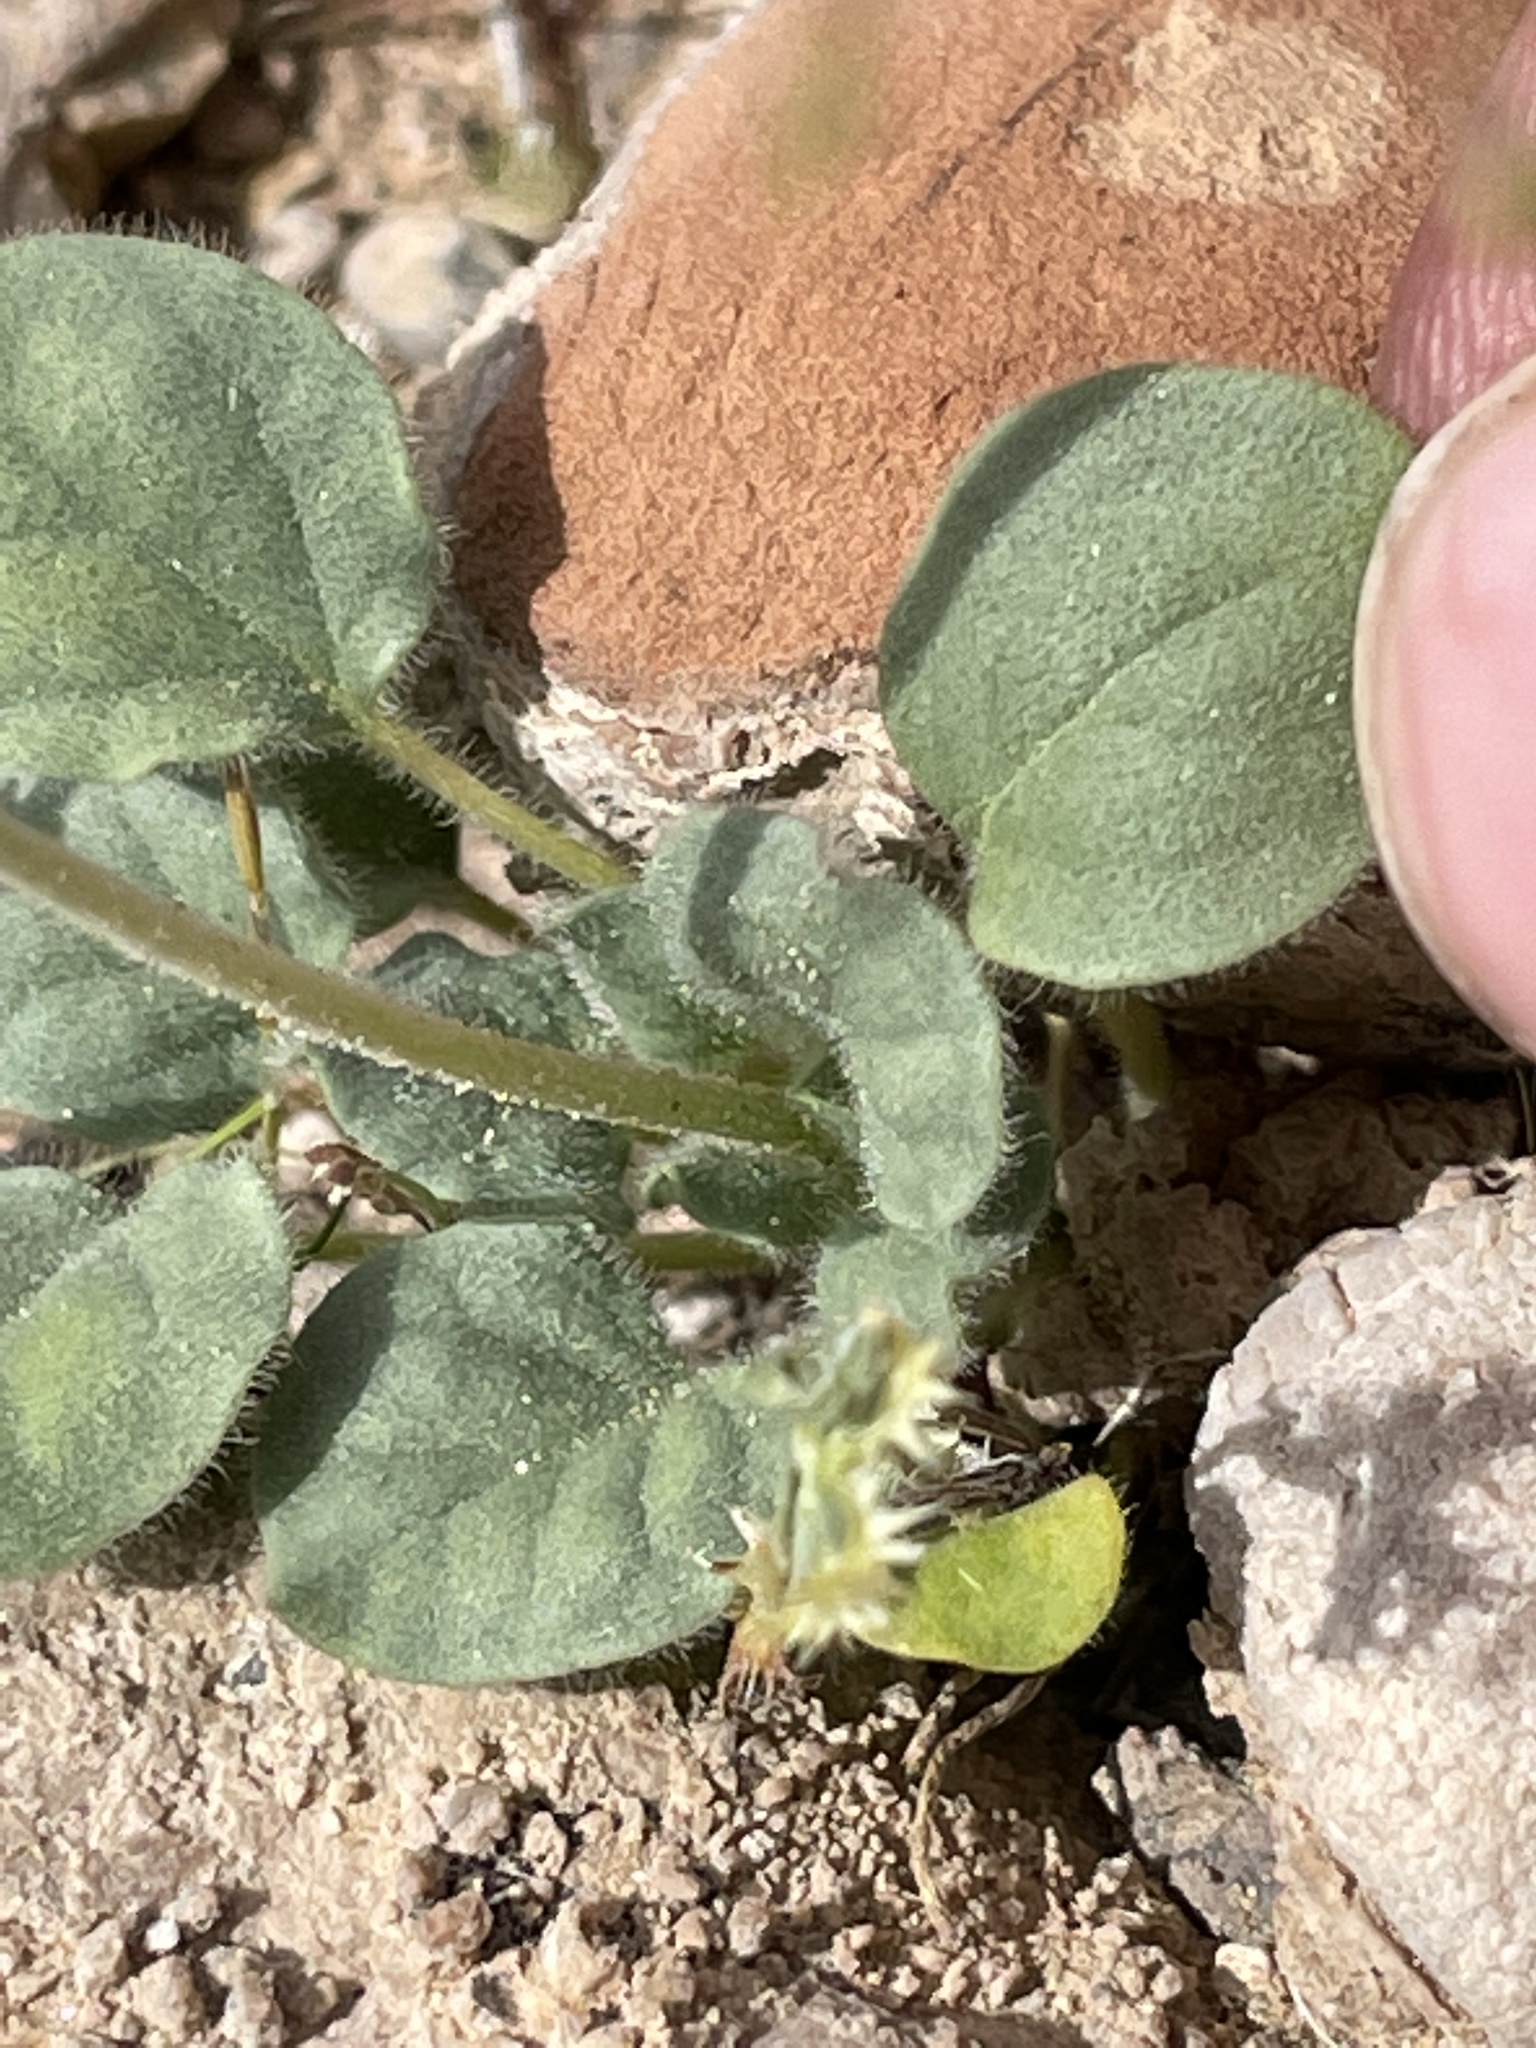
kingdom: Plantae
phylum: Tracheophyta
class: Magnoliopsida
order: Caryophyllales
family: Polygonaceae
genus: Eriogonum
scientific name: Eriogonum trichopes
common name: Little desert trumpet
